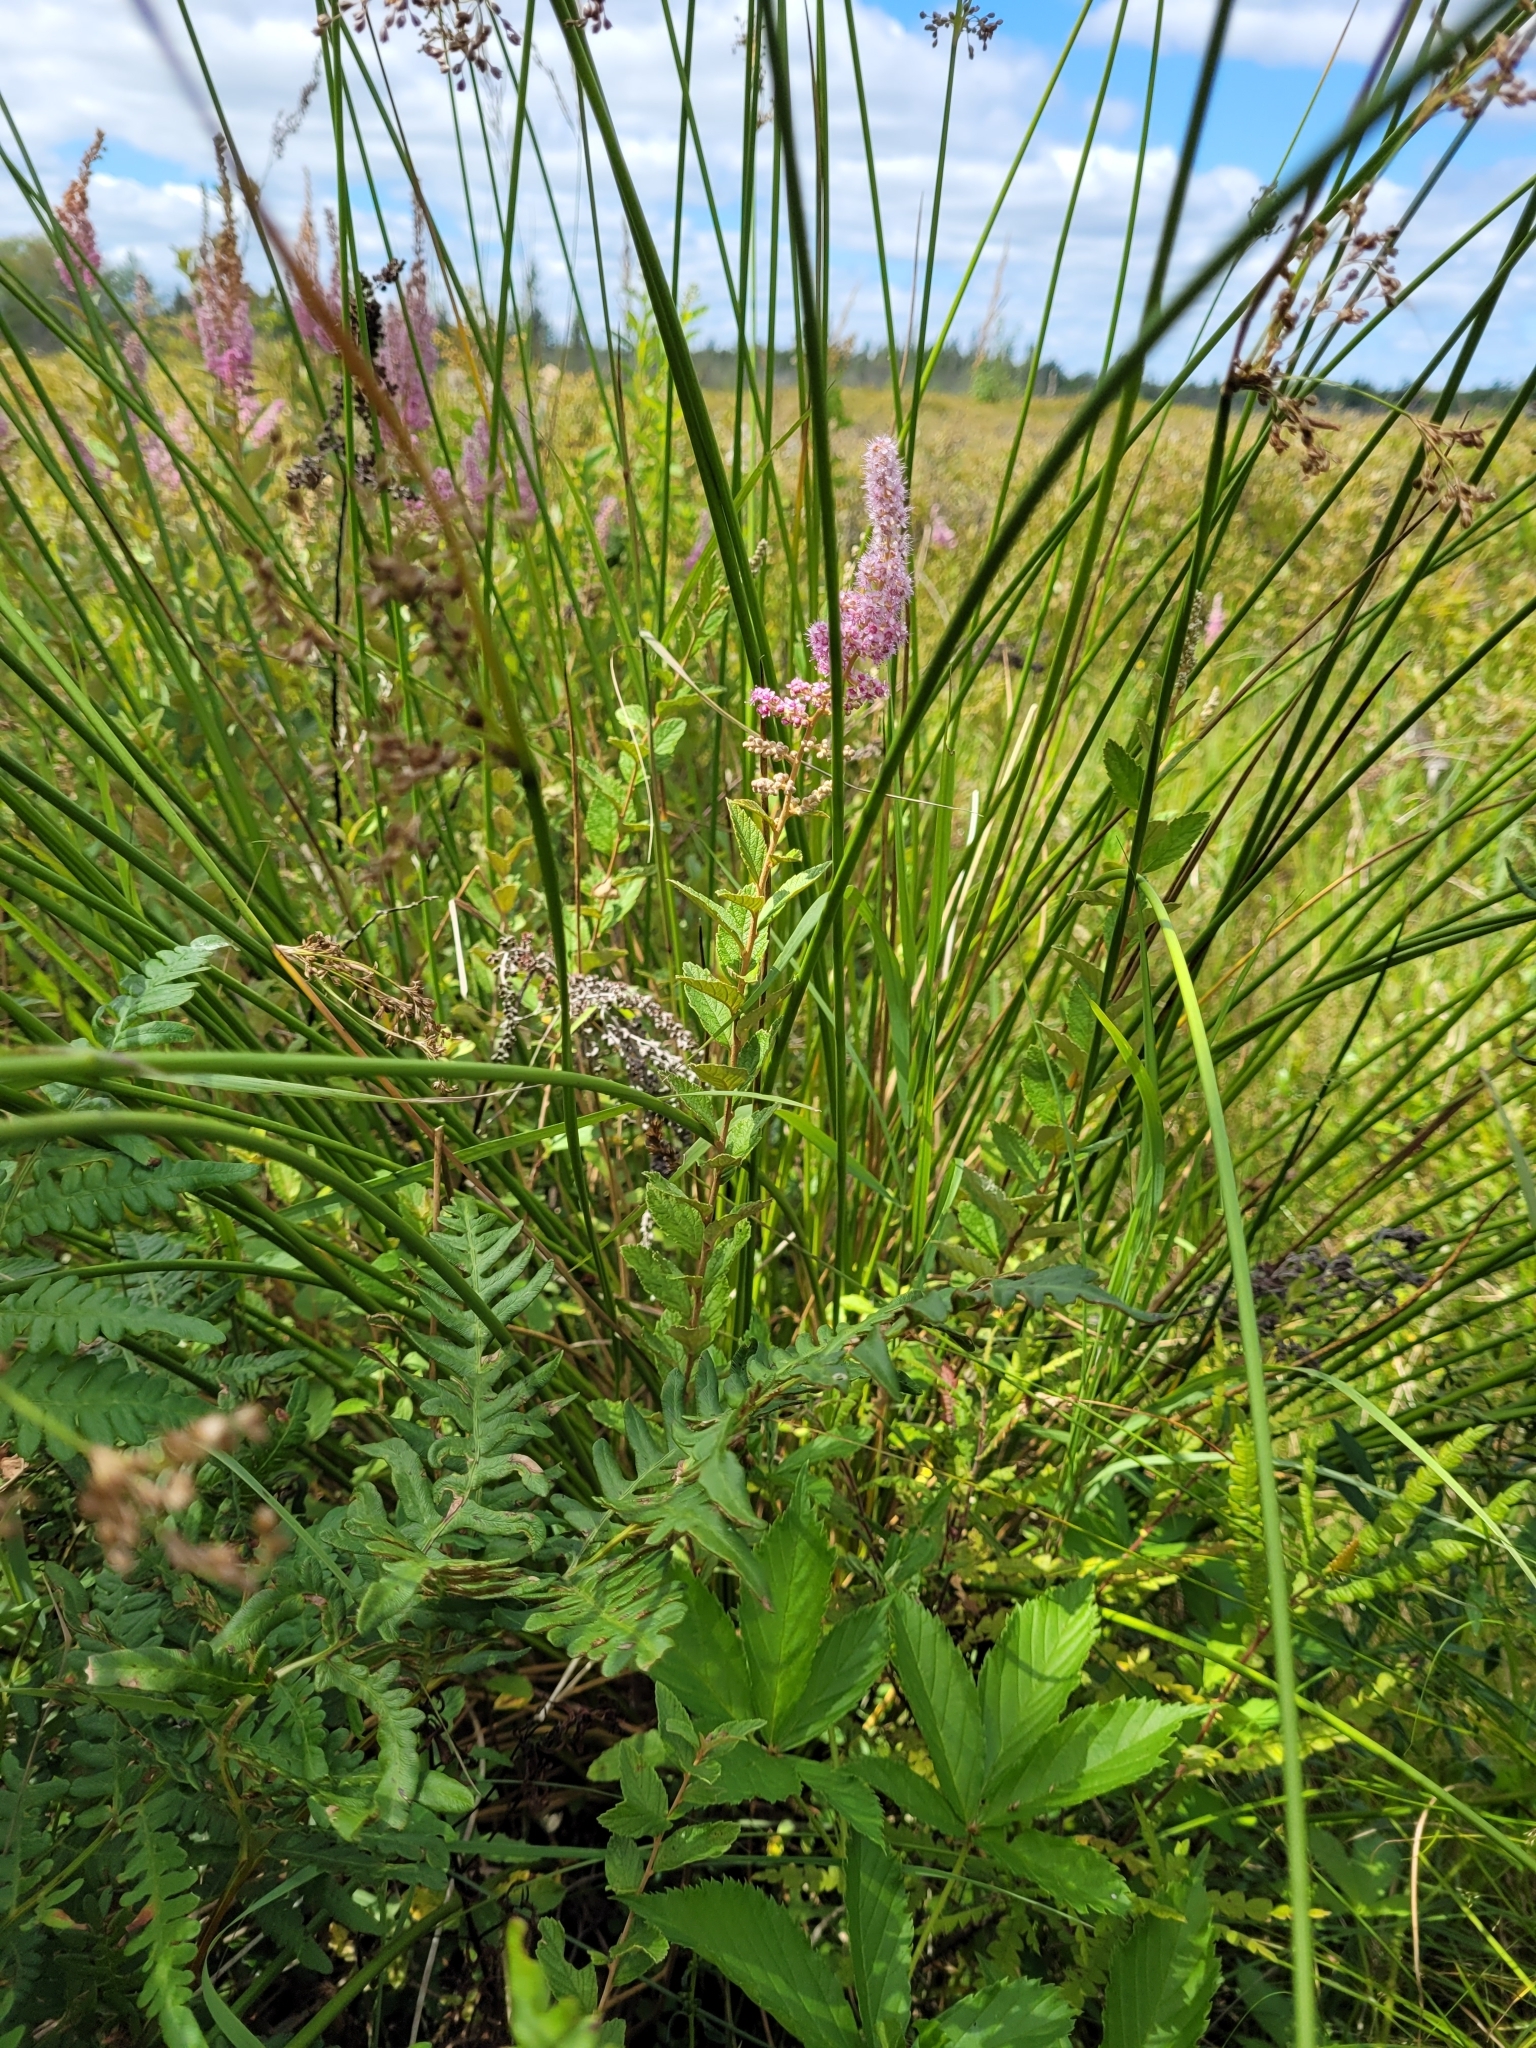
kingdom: Plantae
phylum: Tracheophyta
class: Magnoliopsida
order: Rosales
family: Rosaceae
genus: Spiraea
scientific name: Spiraea tomentosa
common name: Hardhack
